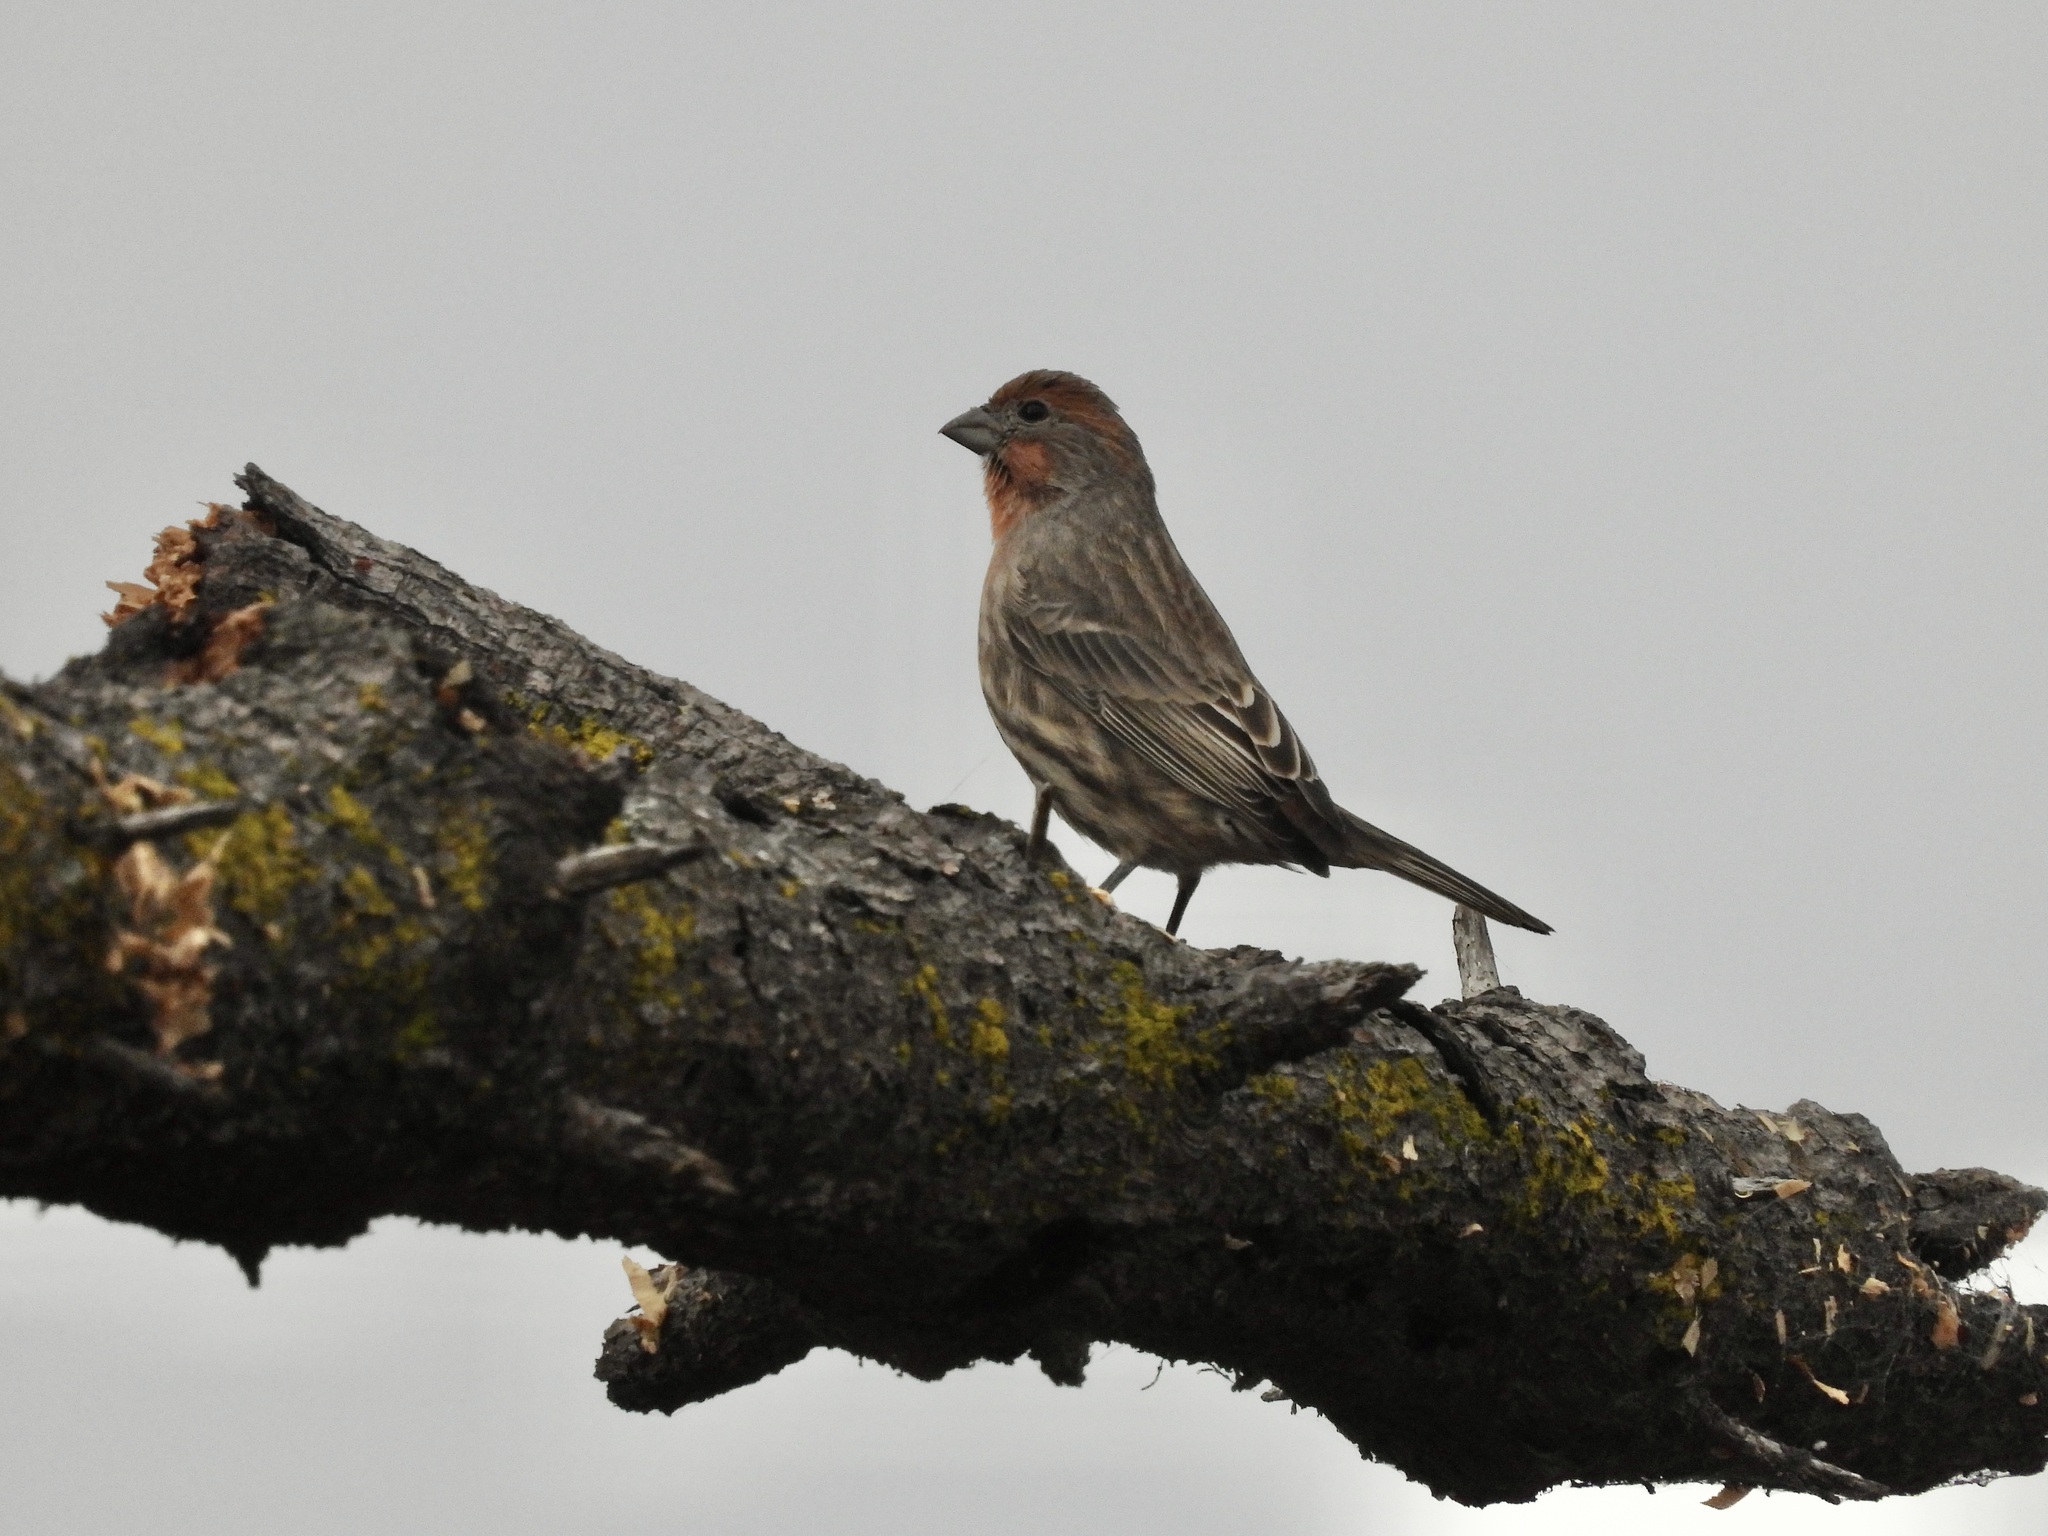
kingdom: Animalia
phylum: Chordata
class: Aves
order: Passeriformes
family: Fringillidae
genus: Haemorhous
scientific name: Haemorhous mexicanus
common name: House finch
